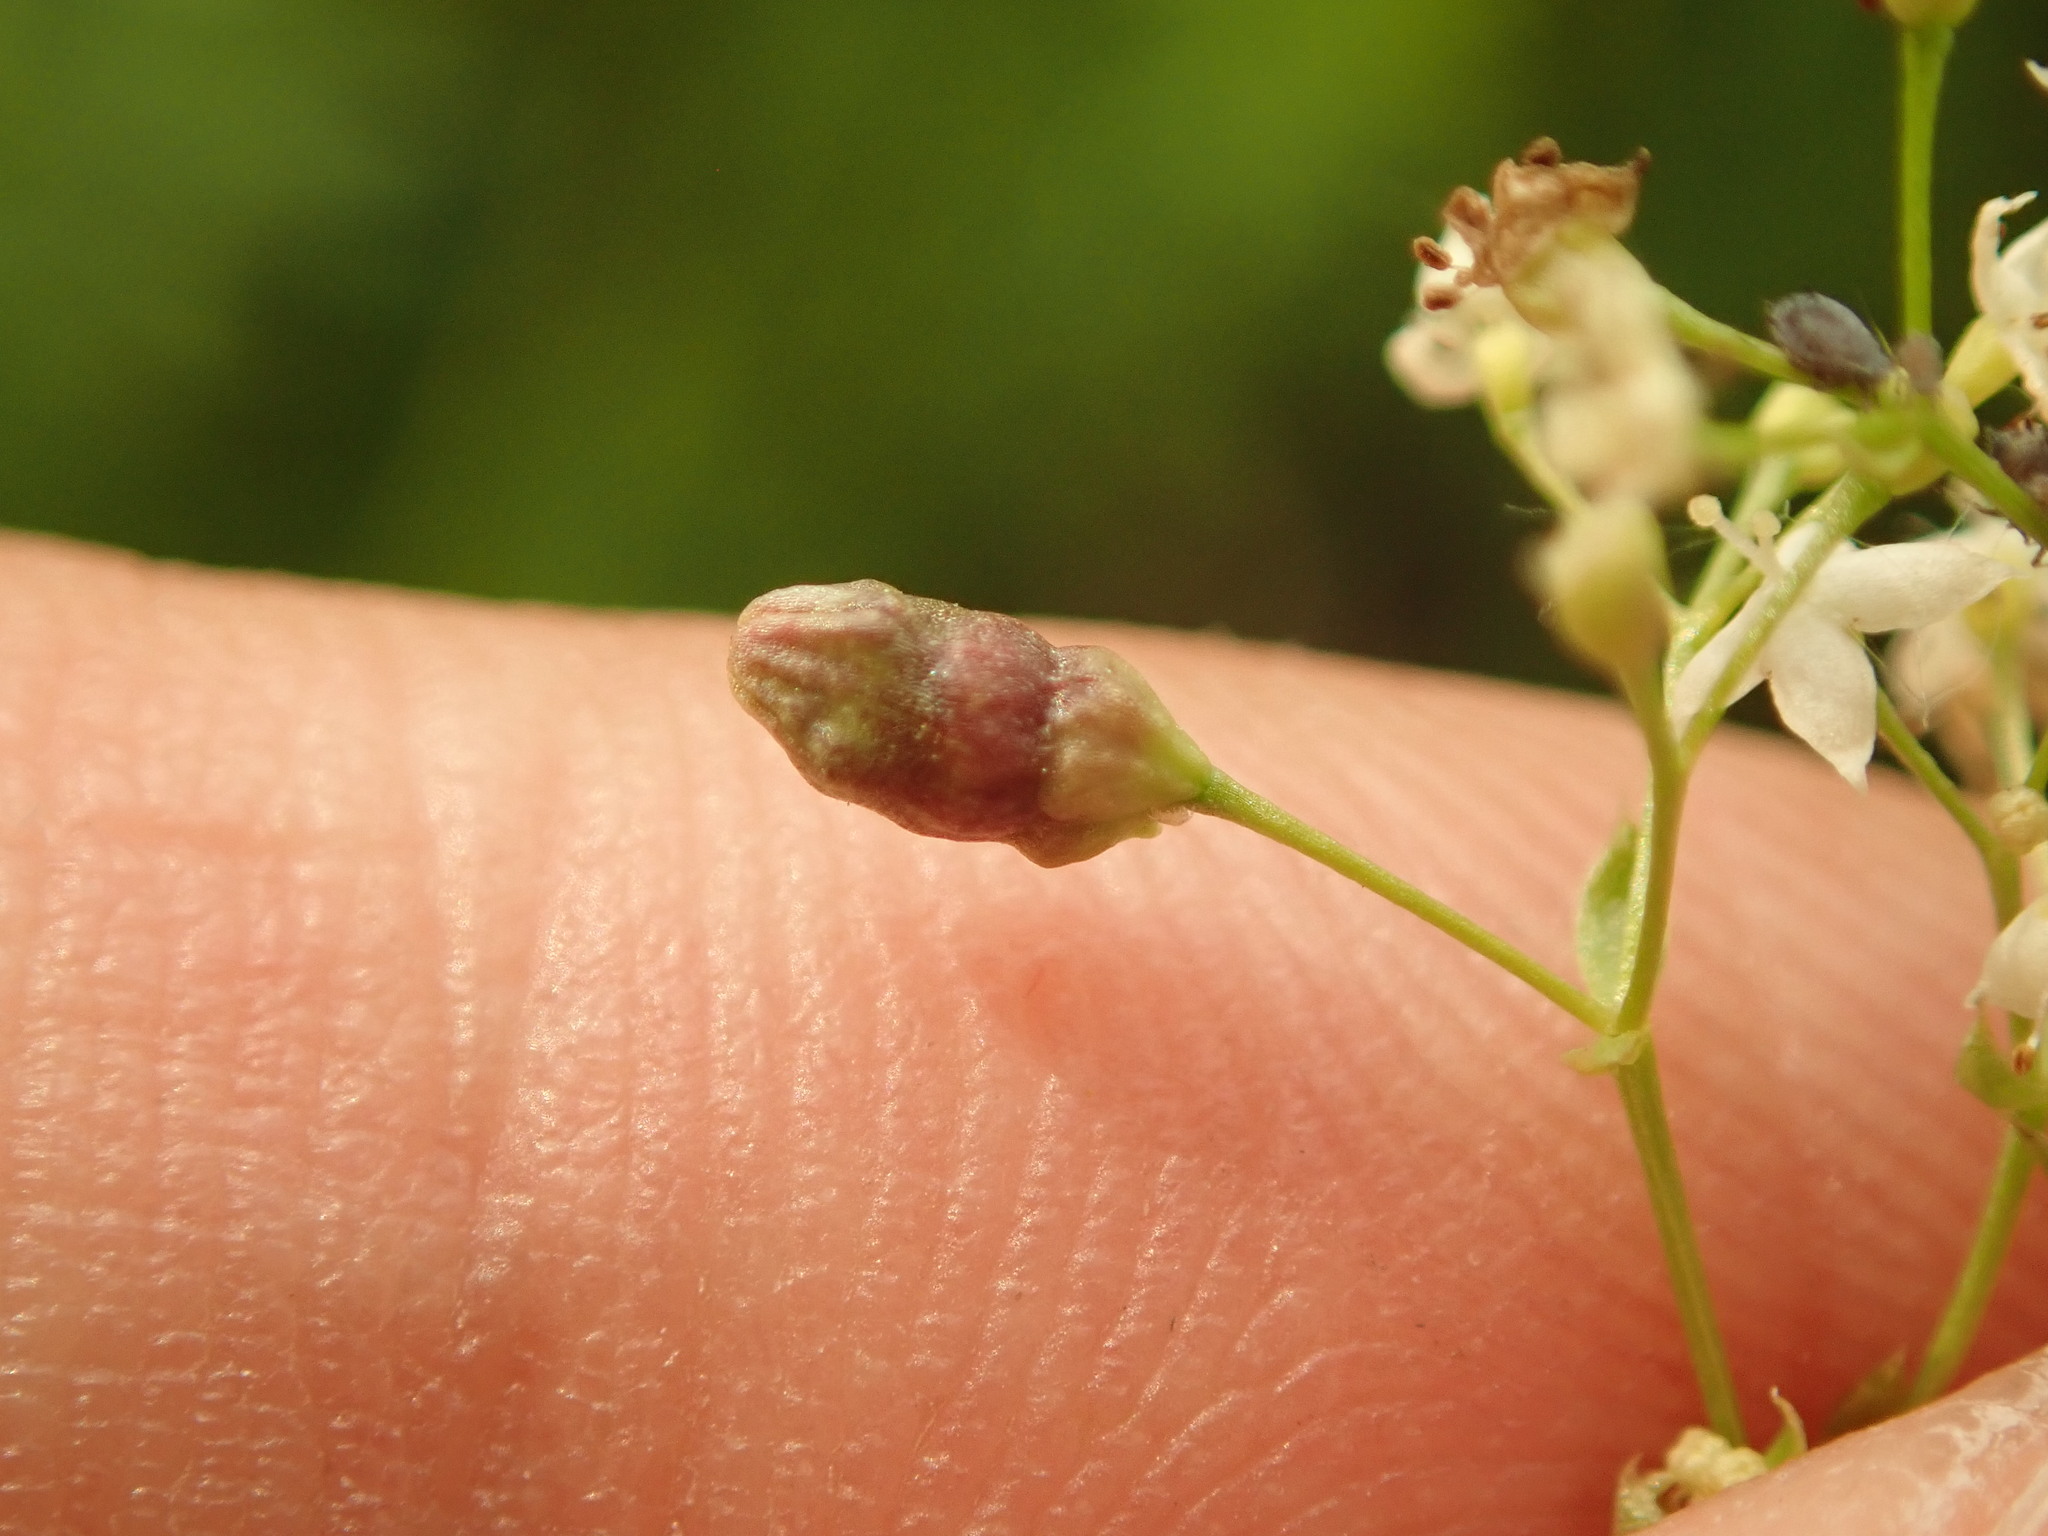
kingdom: Animalia
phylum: Arthropoda
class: Insecta
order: Diptera
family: Cecidomyiidae
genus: Schizomyia
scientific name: Schizomyia galiorum
